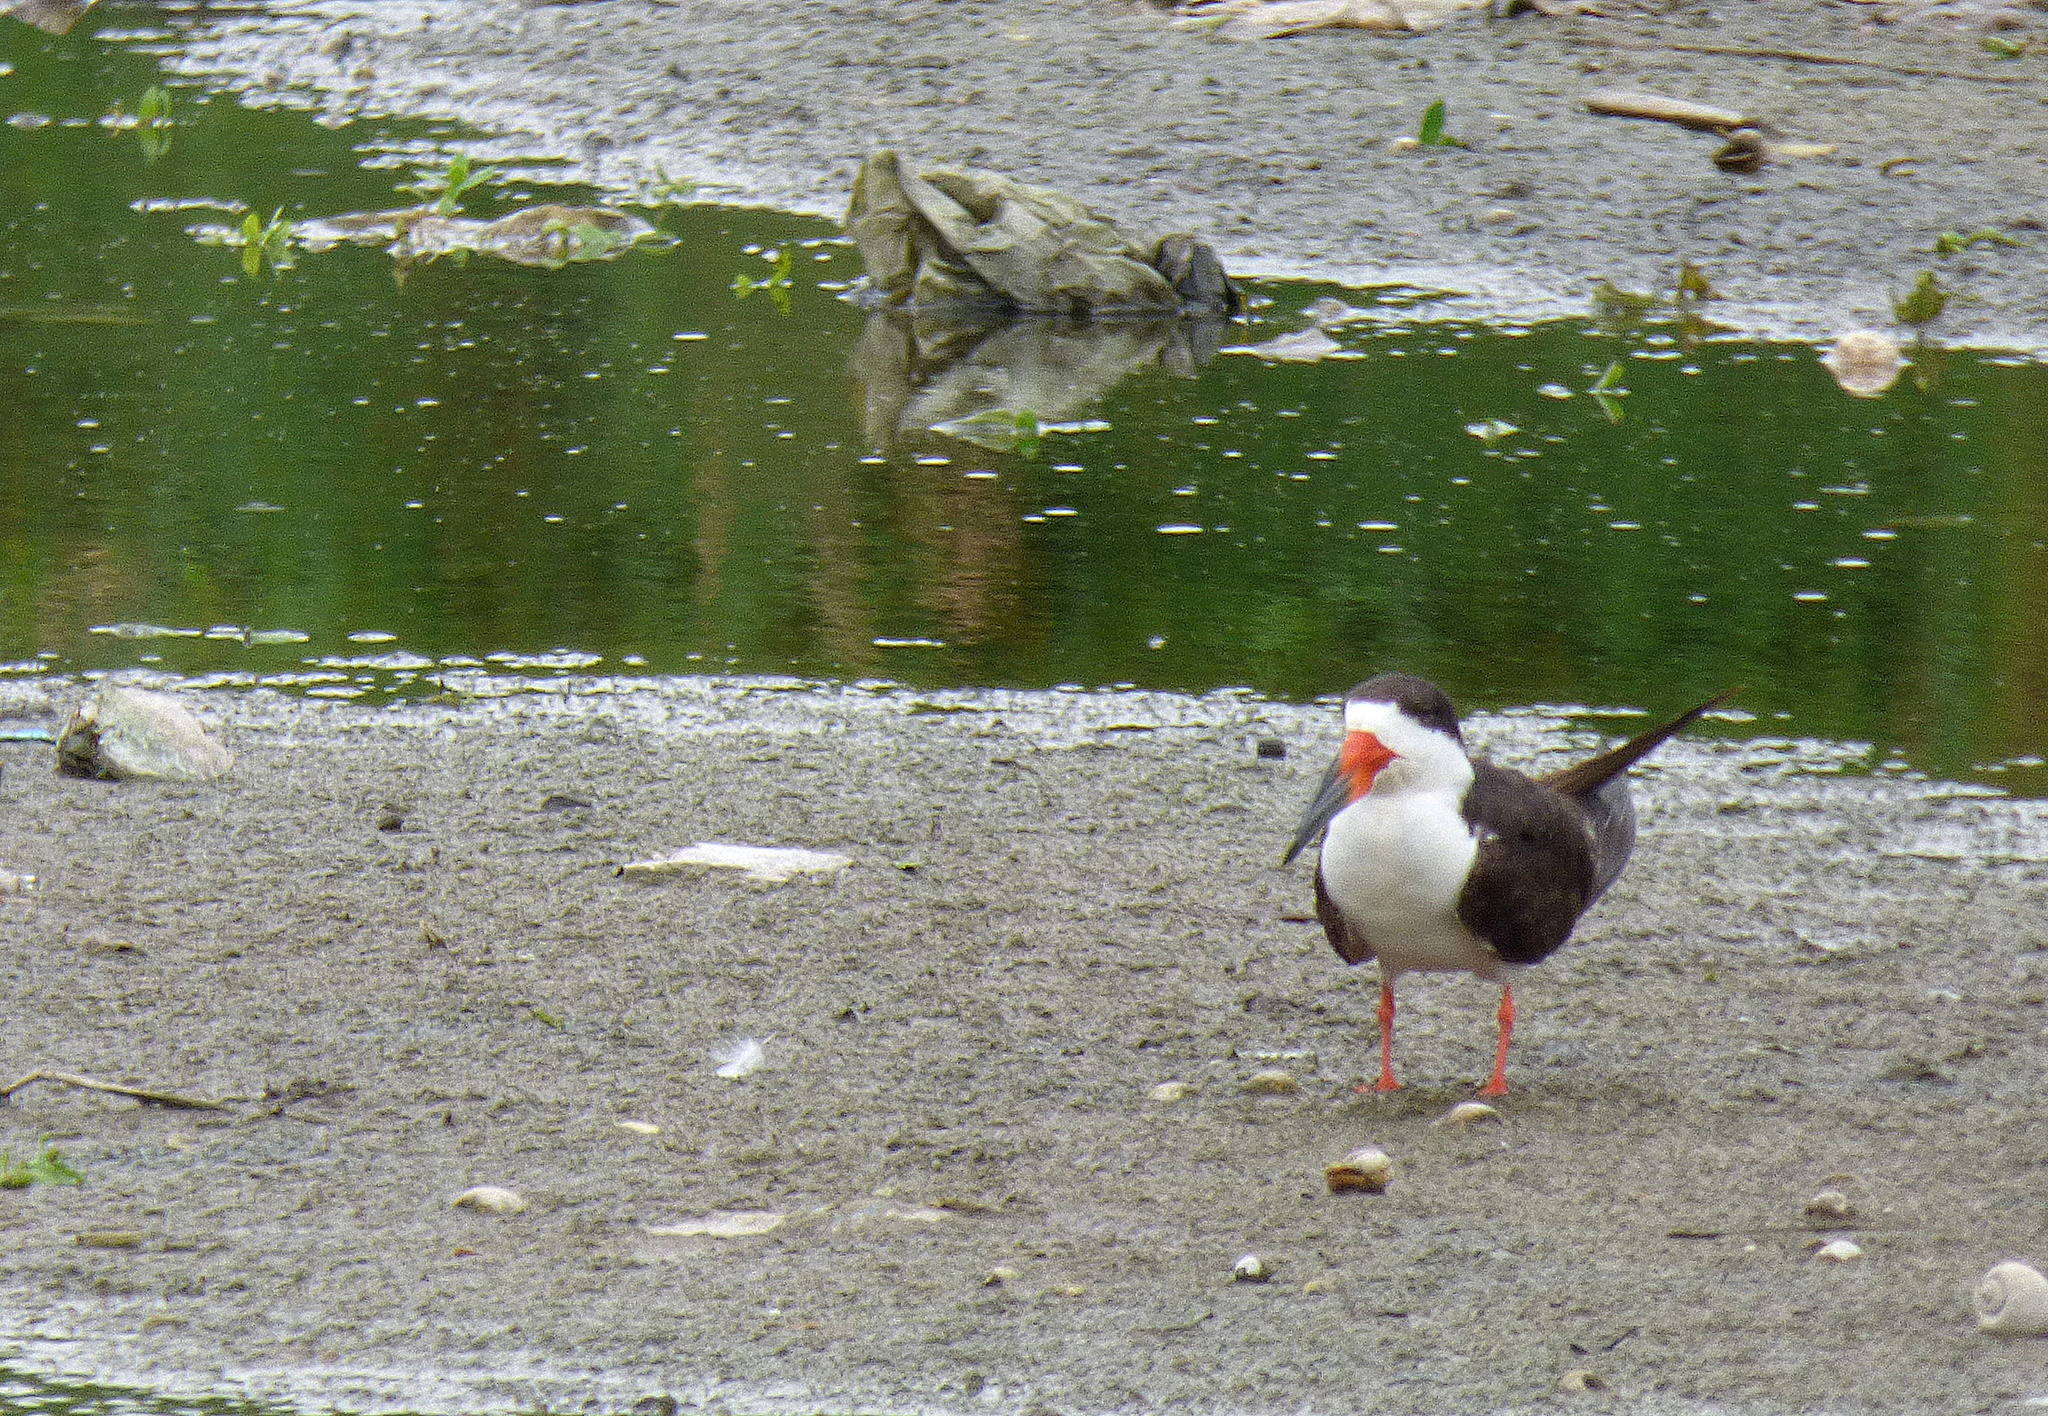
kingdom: Animalia
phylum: Chordata
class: Aves
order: Charadriiformes
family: Laridae
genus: Rynchops
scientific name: Rynchops niger
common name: Black skimmer
